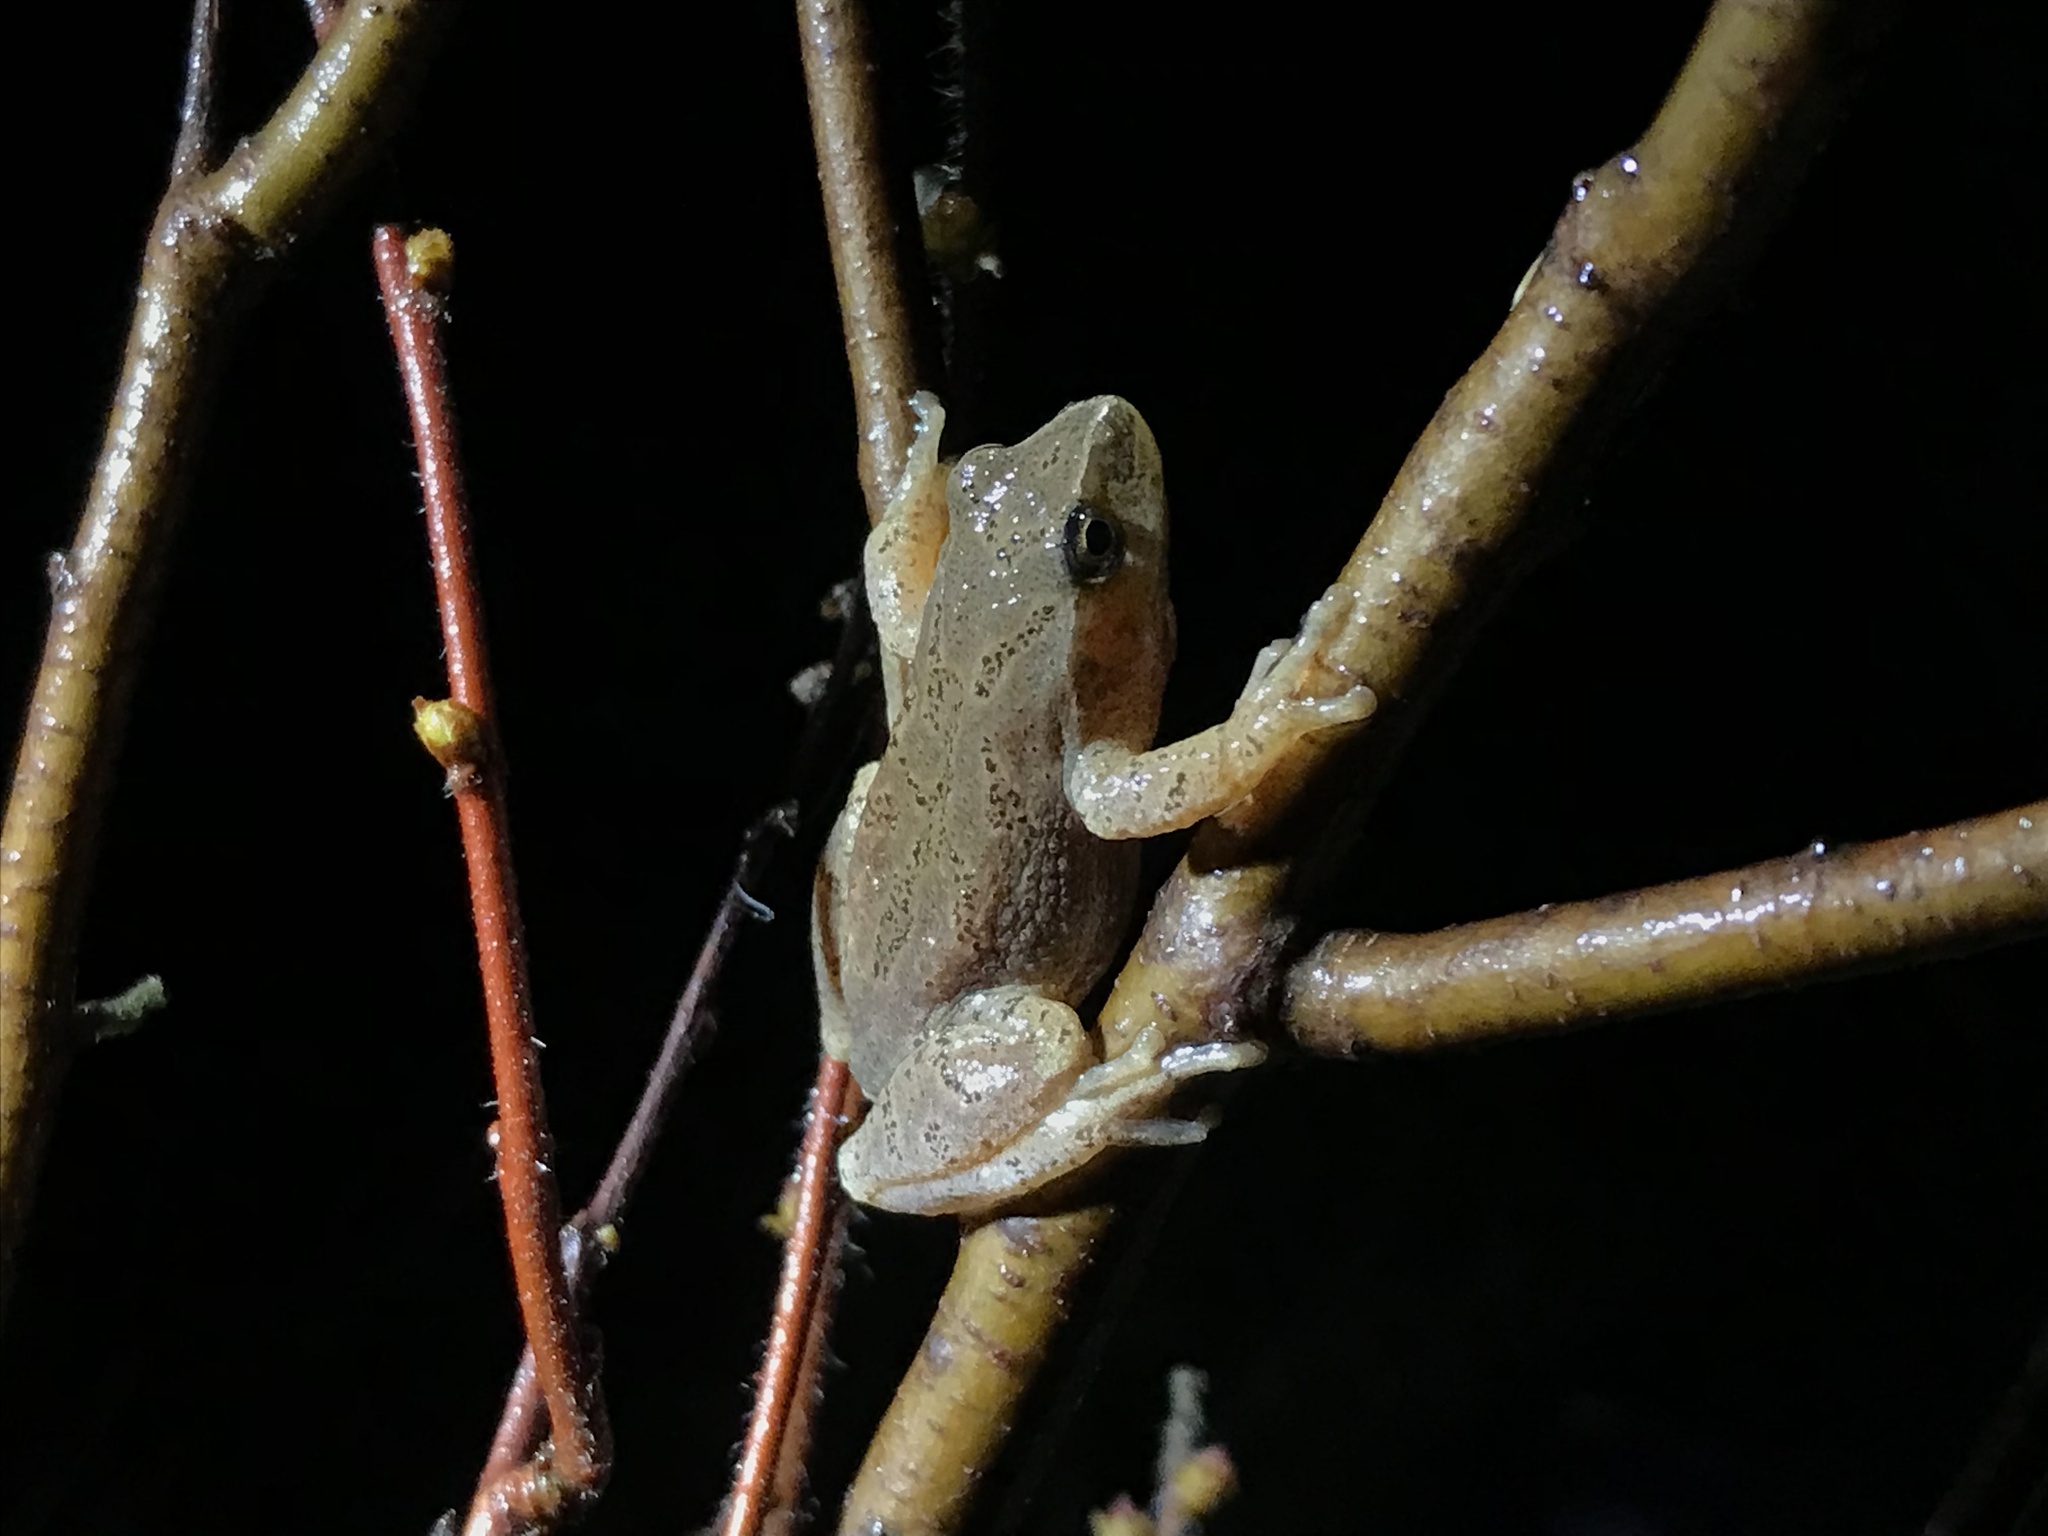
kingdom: Animalia
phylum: Chordata
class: Amphibia
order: Anura
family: Hylidae
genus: Pseudacris
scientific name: Pseudacris crucifer
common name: Spring peeper
